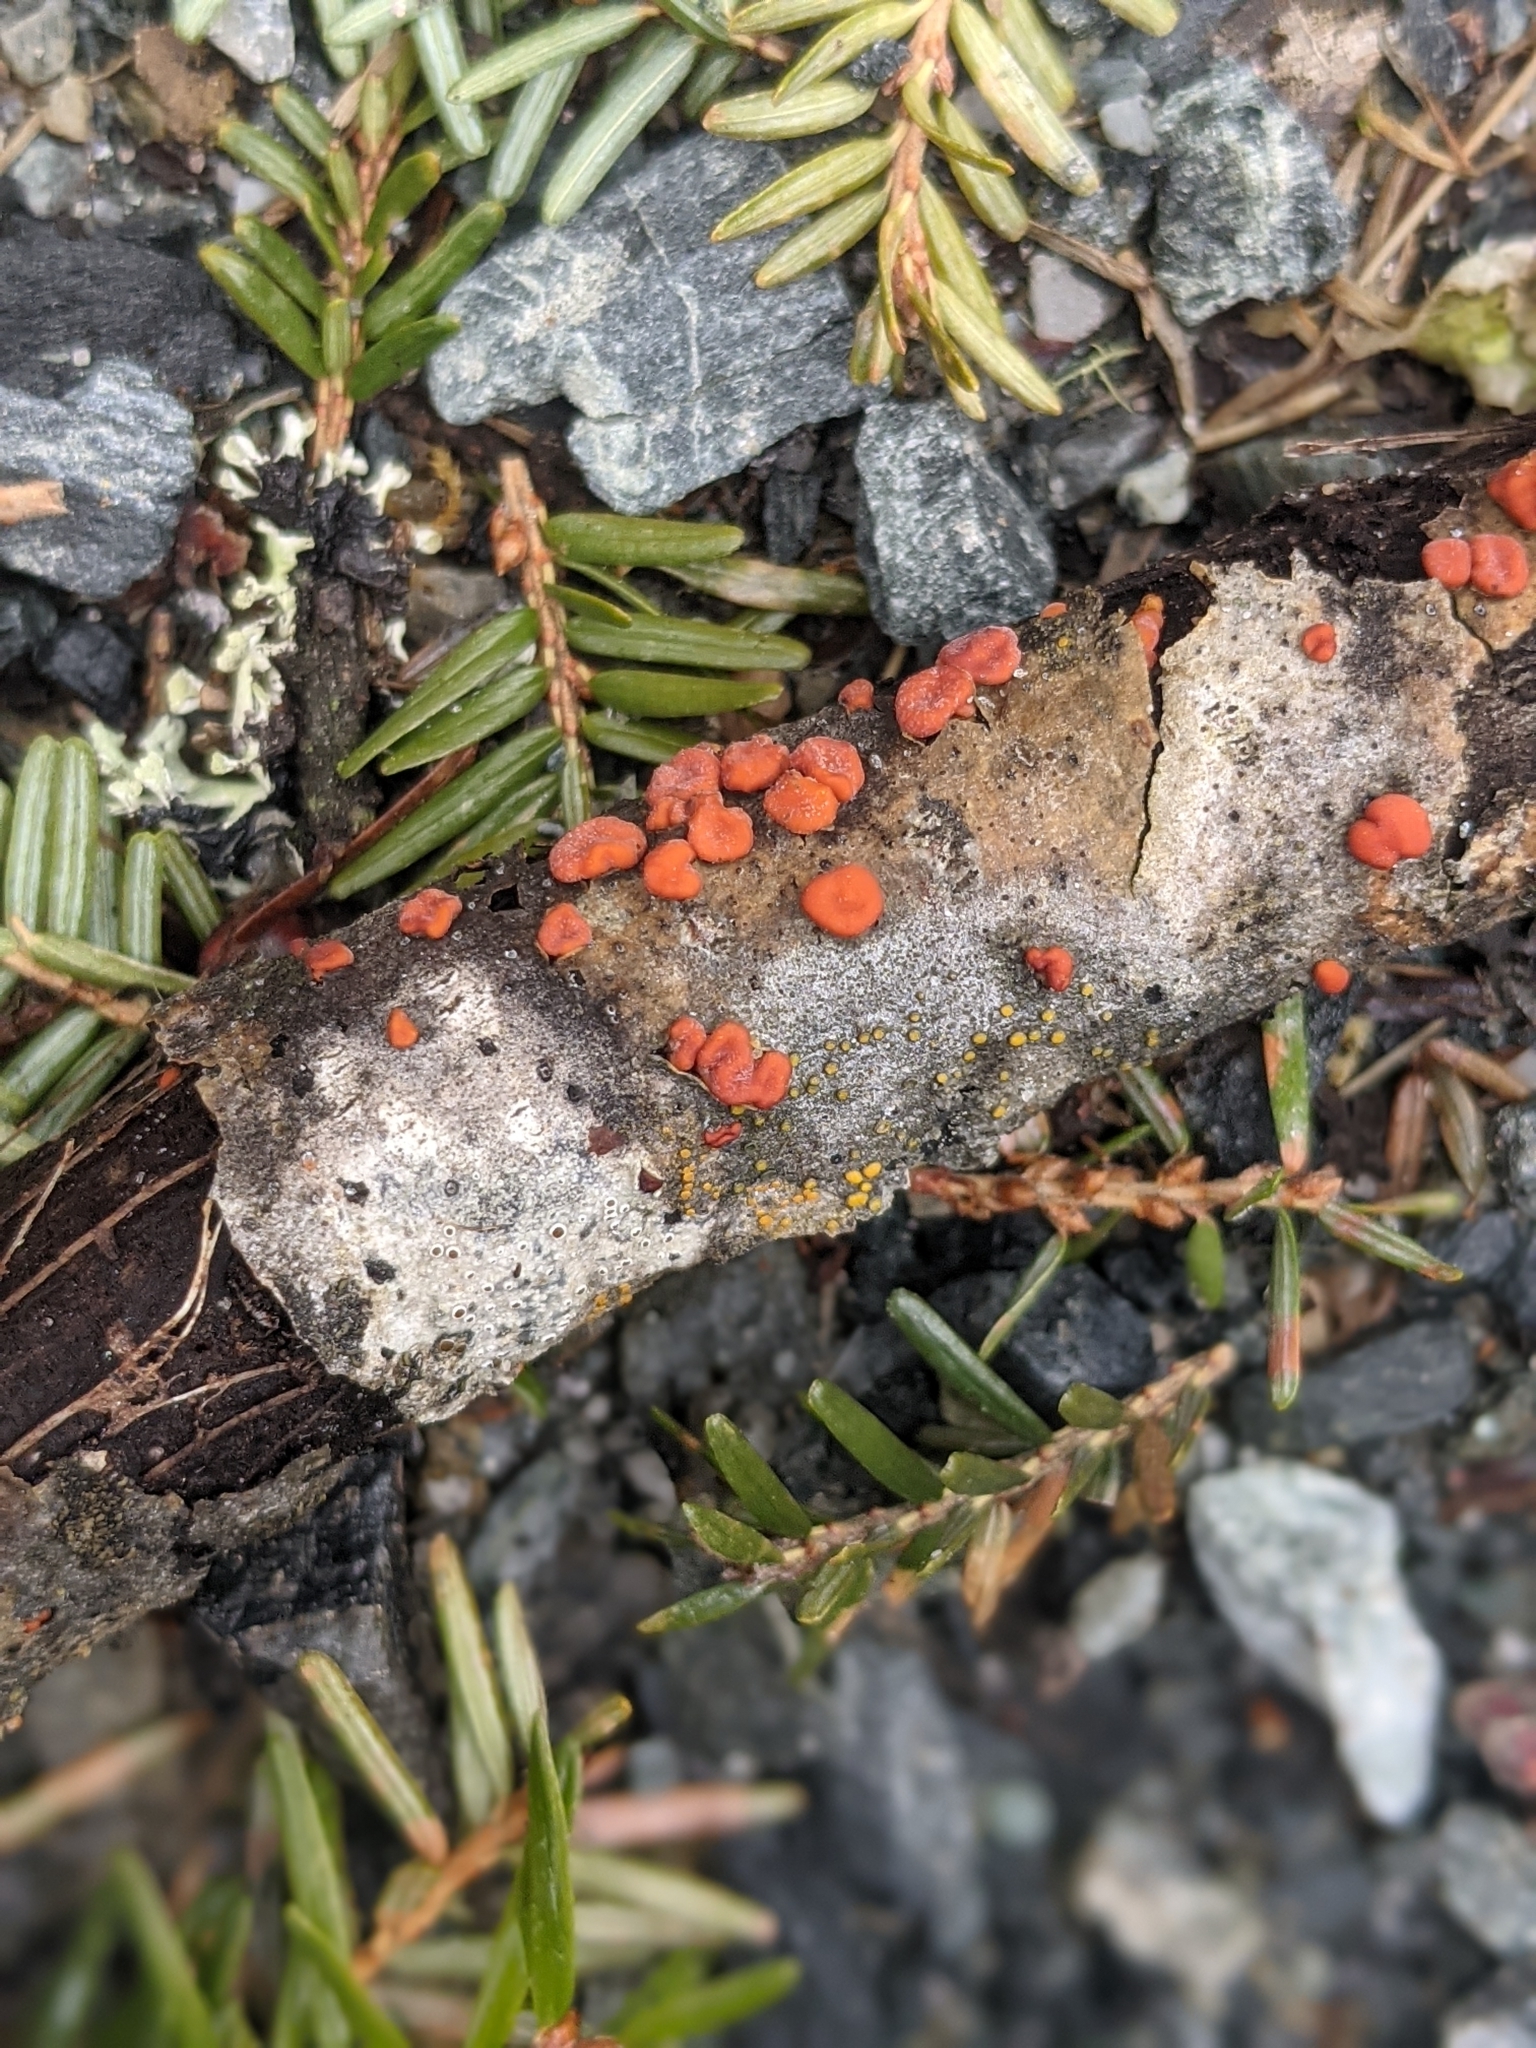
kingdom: Fungi
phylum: Basidiomycota
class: Agaricomycetes
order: Russulales
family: Peniophoraceae
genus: Peniophora
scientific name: Peniophora rufa
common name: Red tree brain fungus
